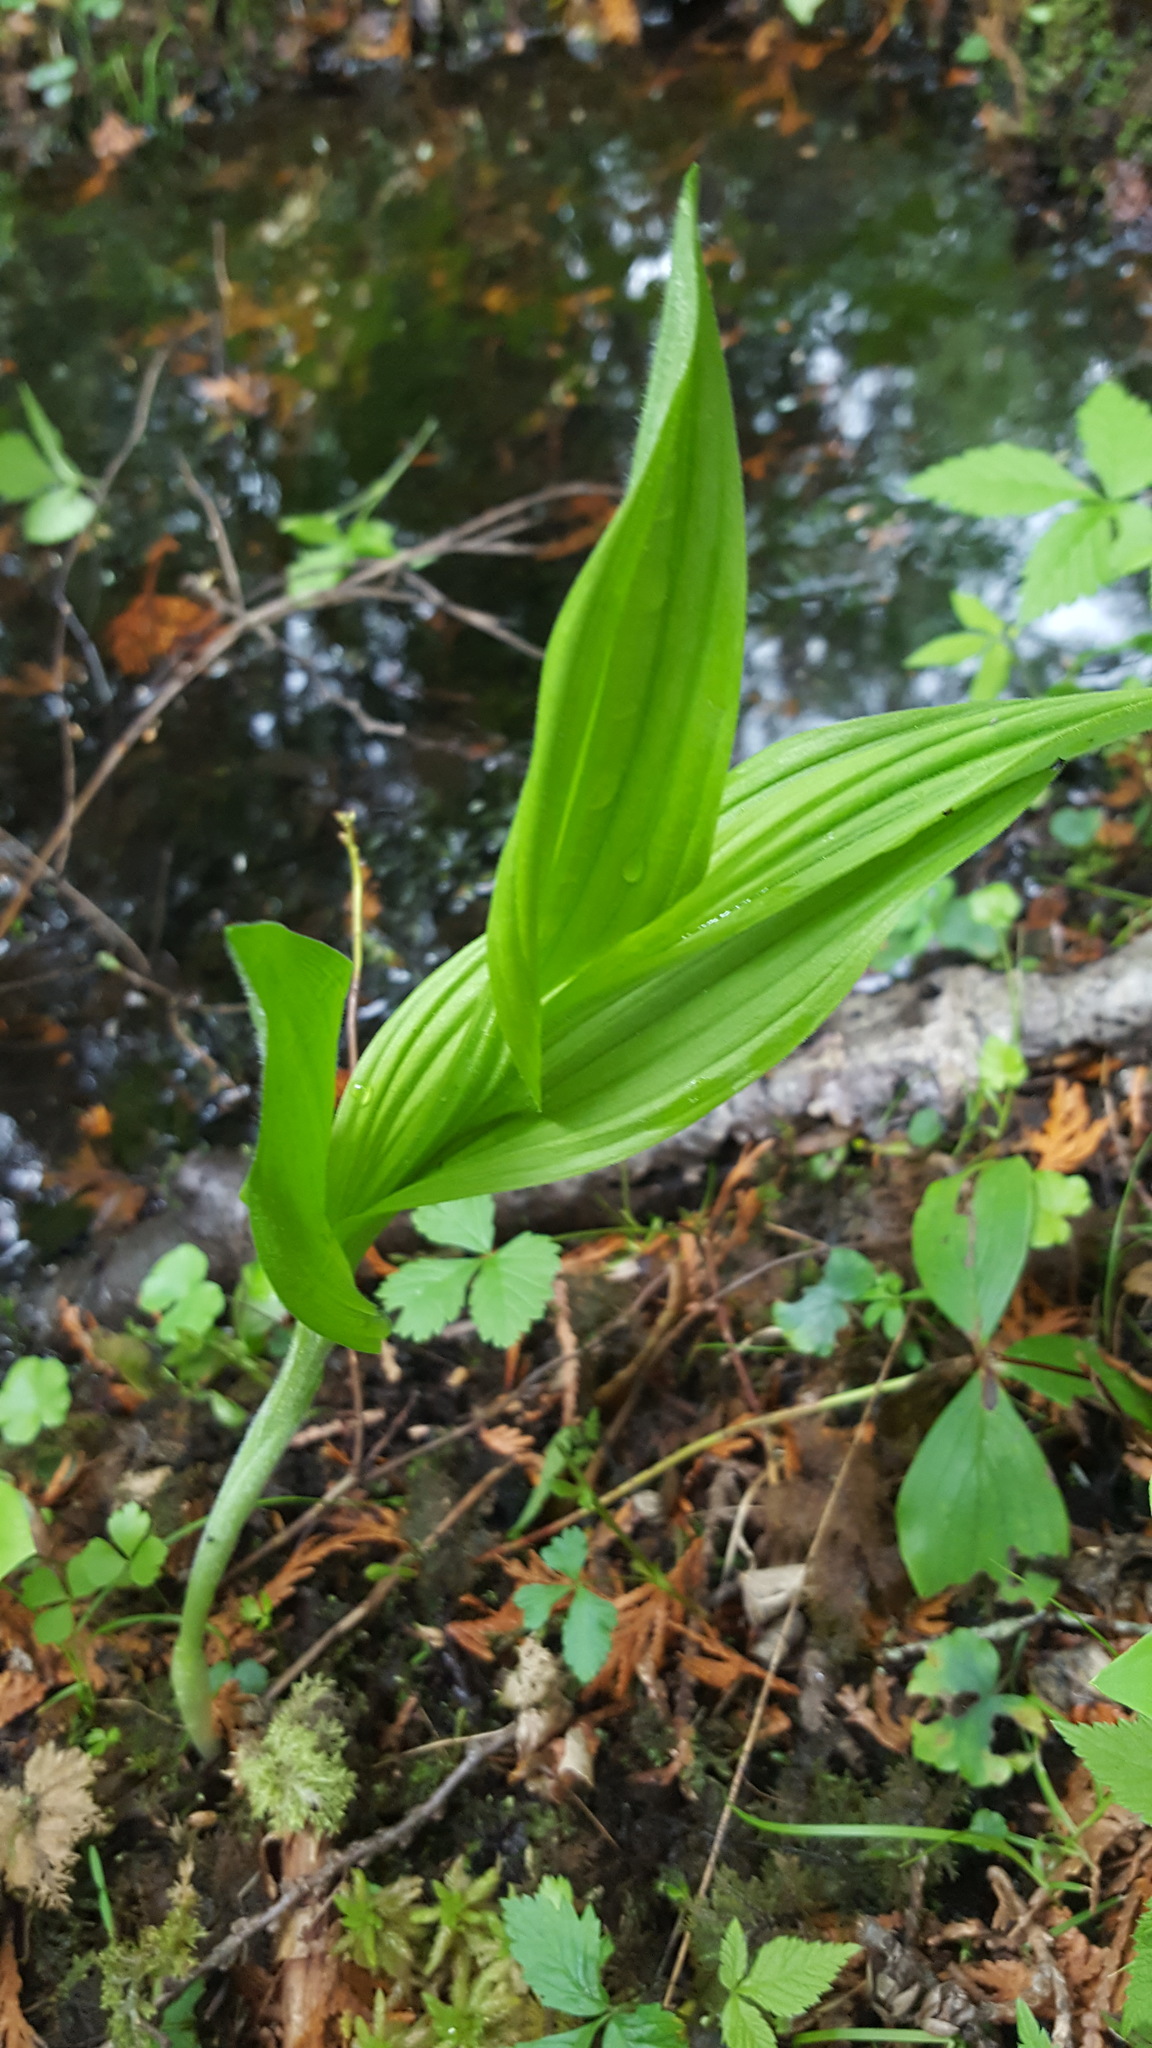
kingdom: Plantae
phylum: Tracheophyta
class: Liliopsida
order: Asparagales
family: Orchidaceae
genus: Cypripedium
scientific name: Cypripedium parviflorum
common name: American yellow lady's-slipper
